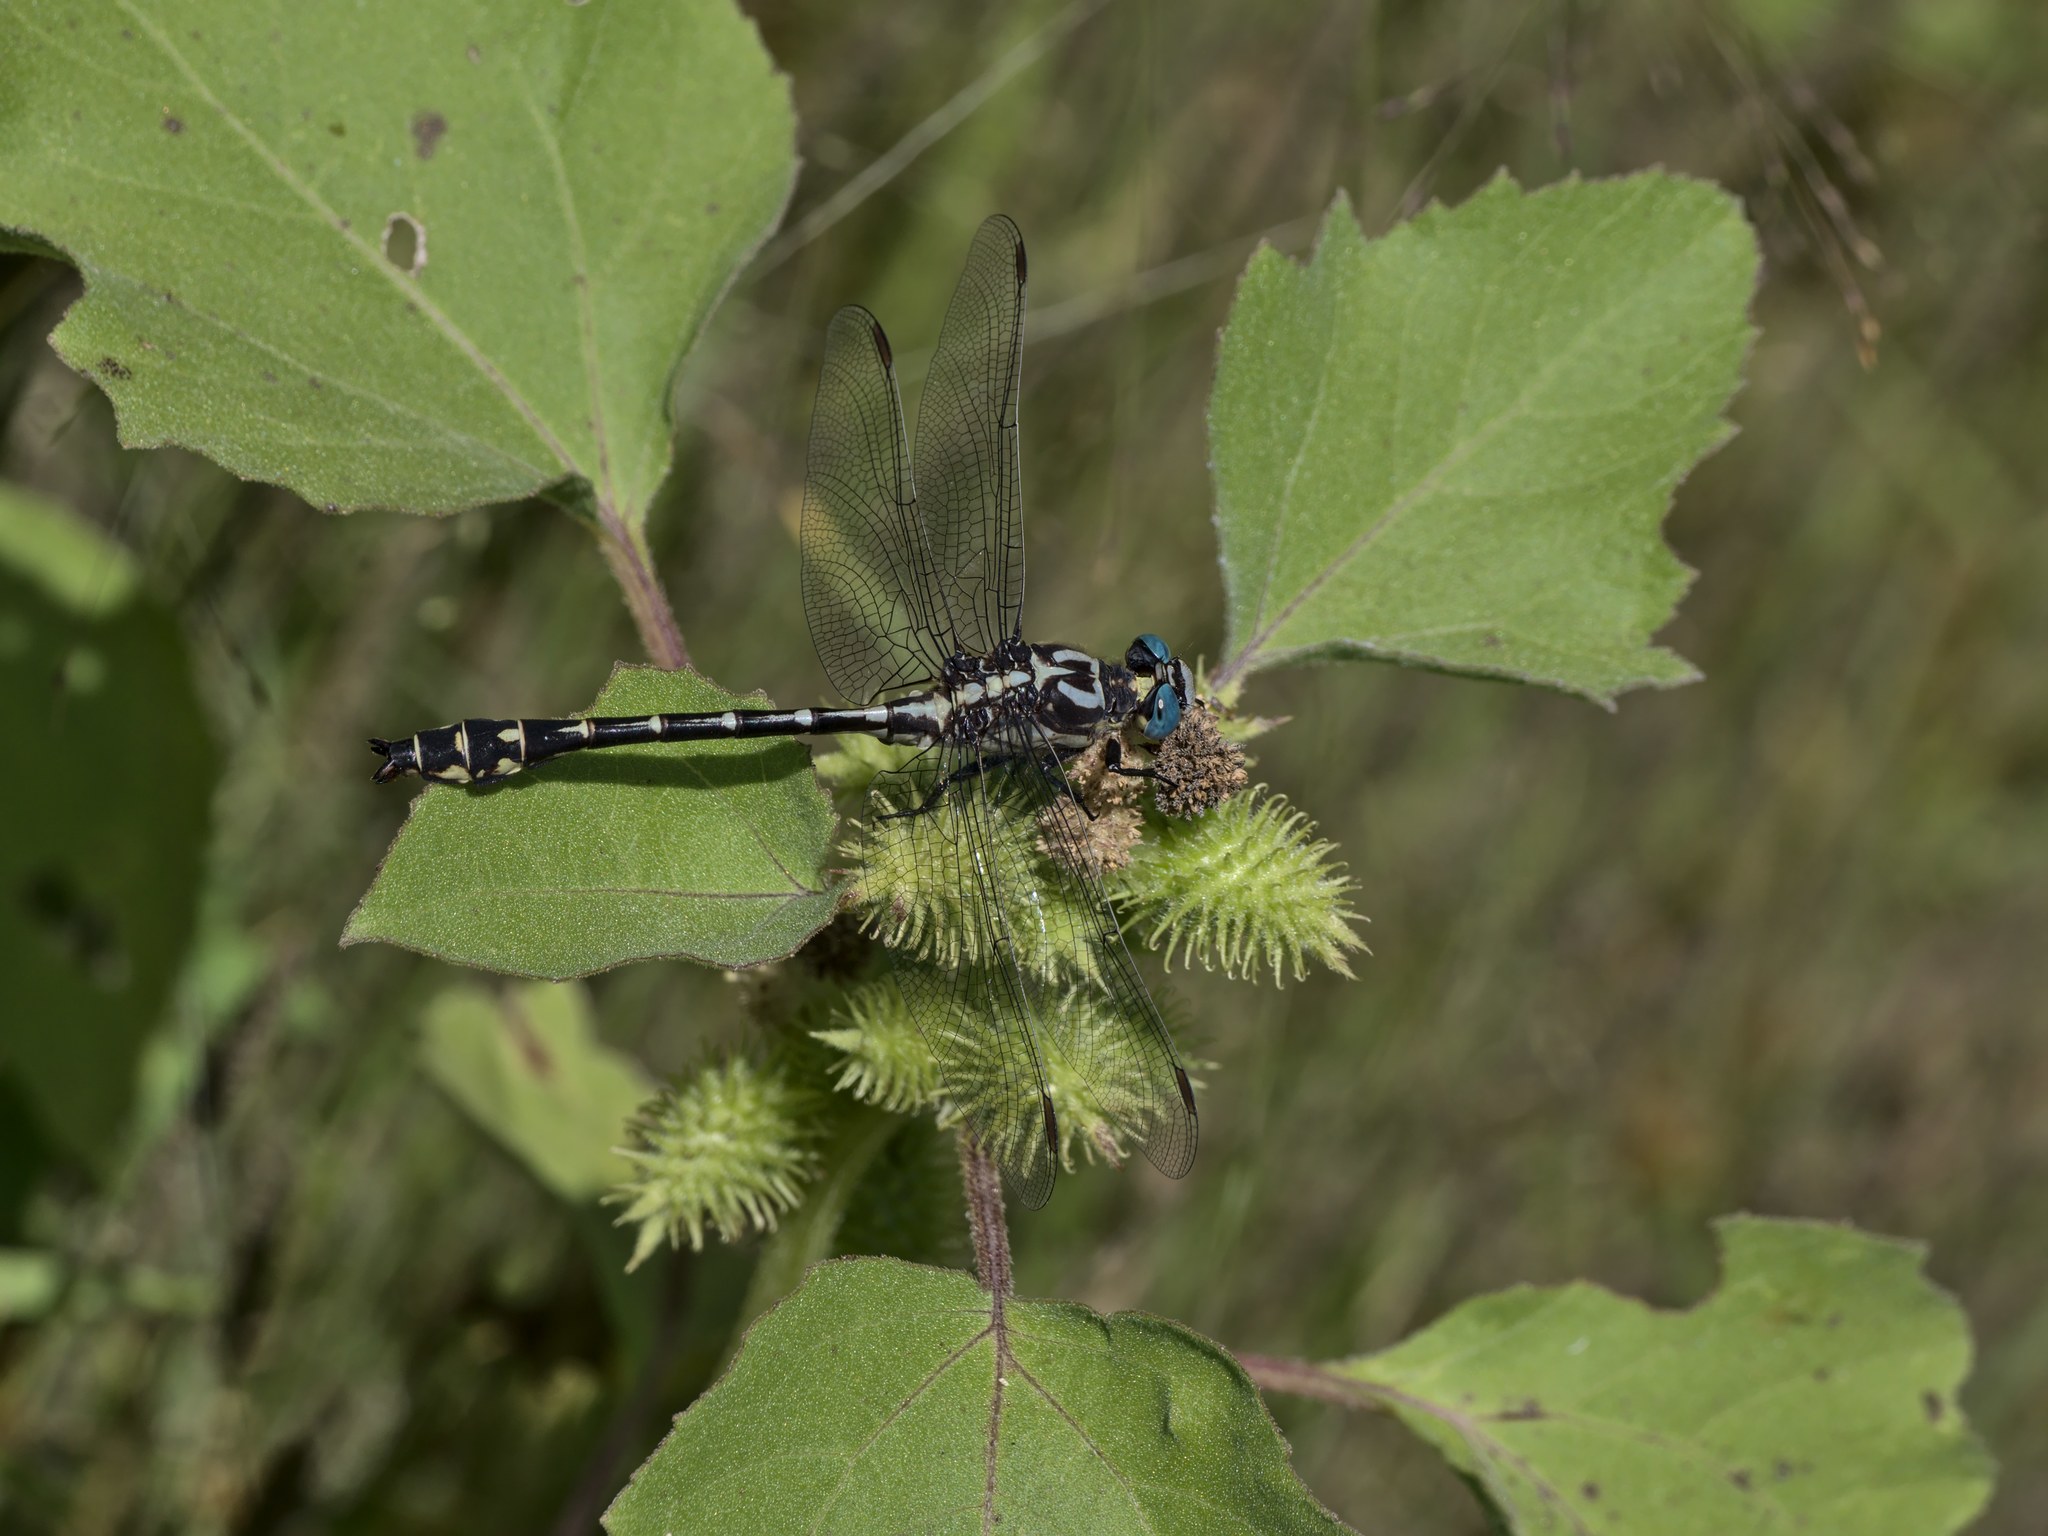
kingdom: Animalia
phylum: Arthropoda
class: Insecta
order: Odonata
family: Gomphidae
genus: Stylurus
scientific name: Stylurus olivaceus
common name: Olive clubtail
